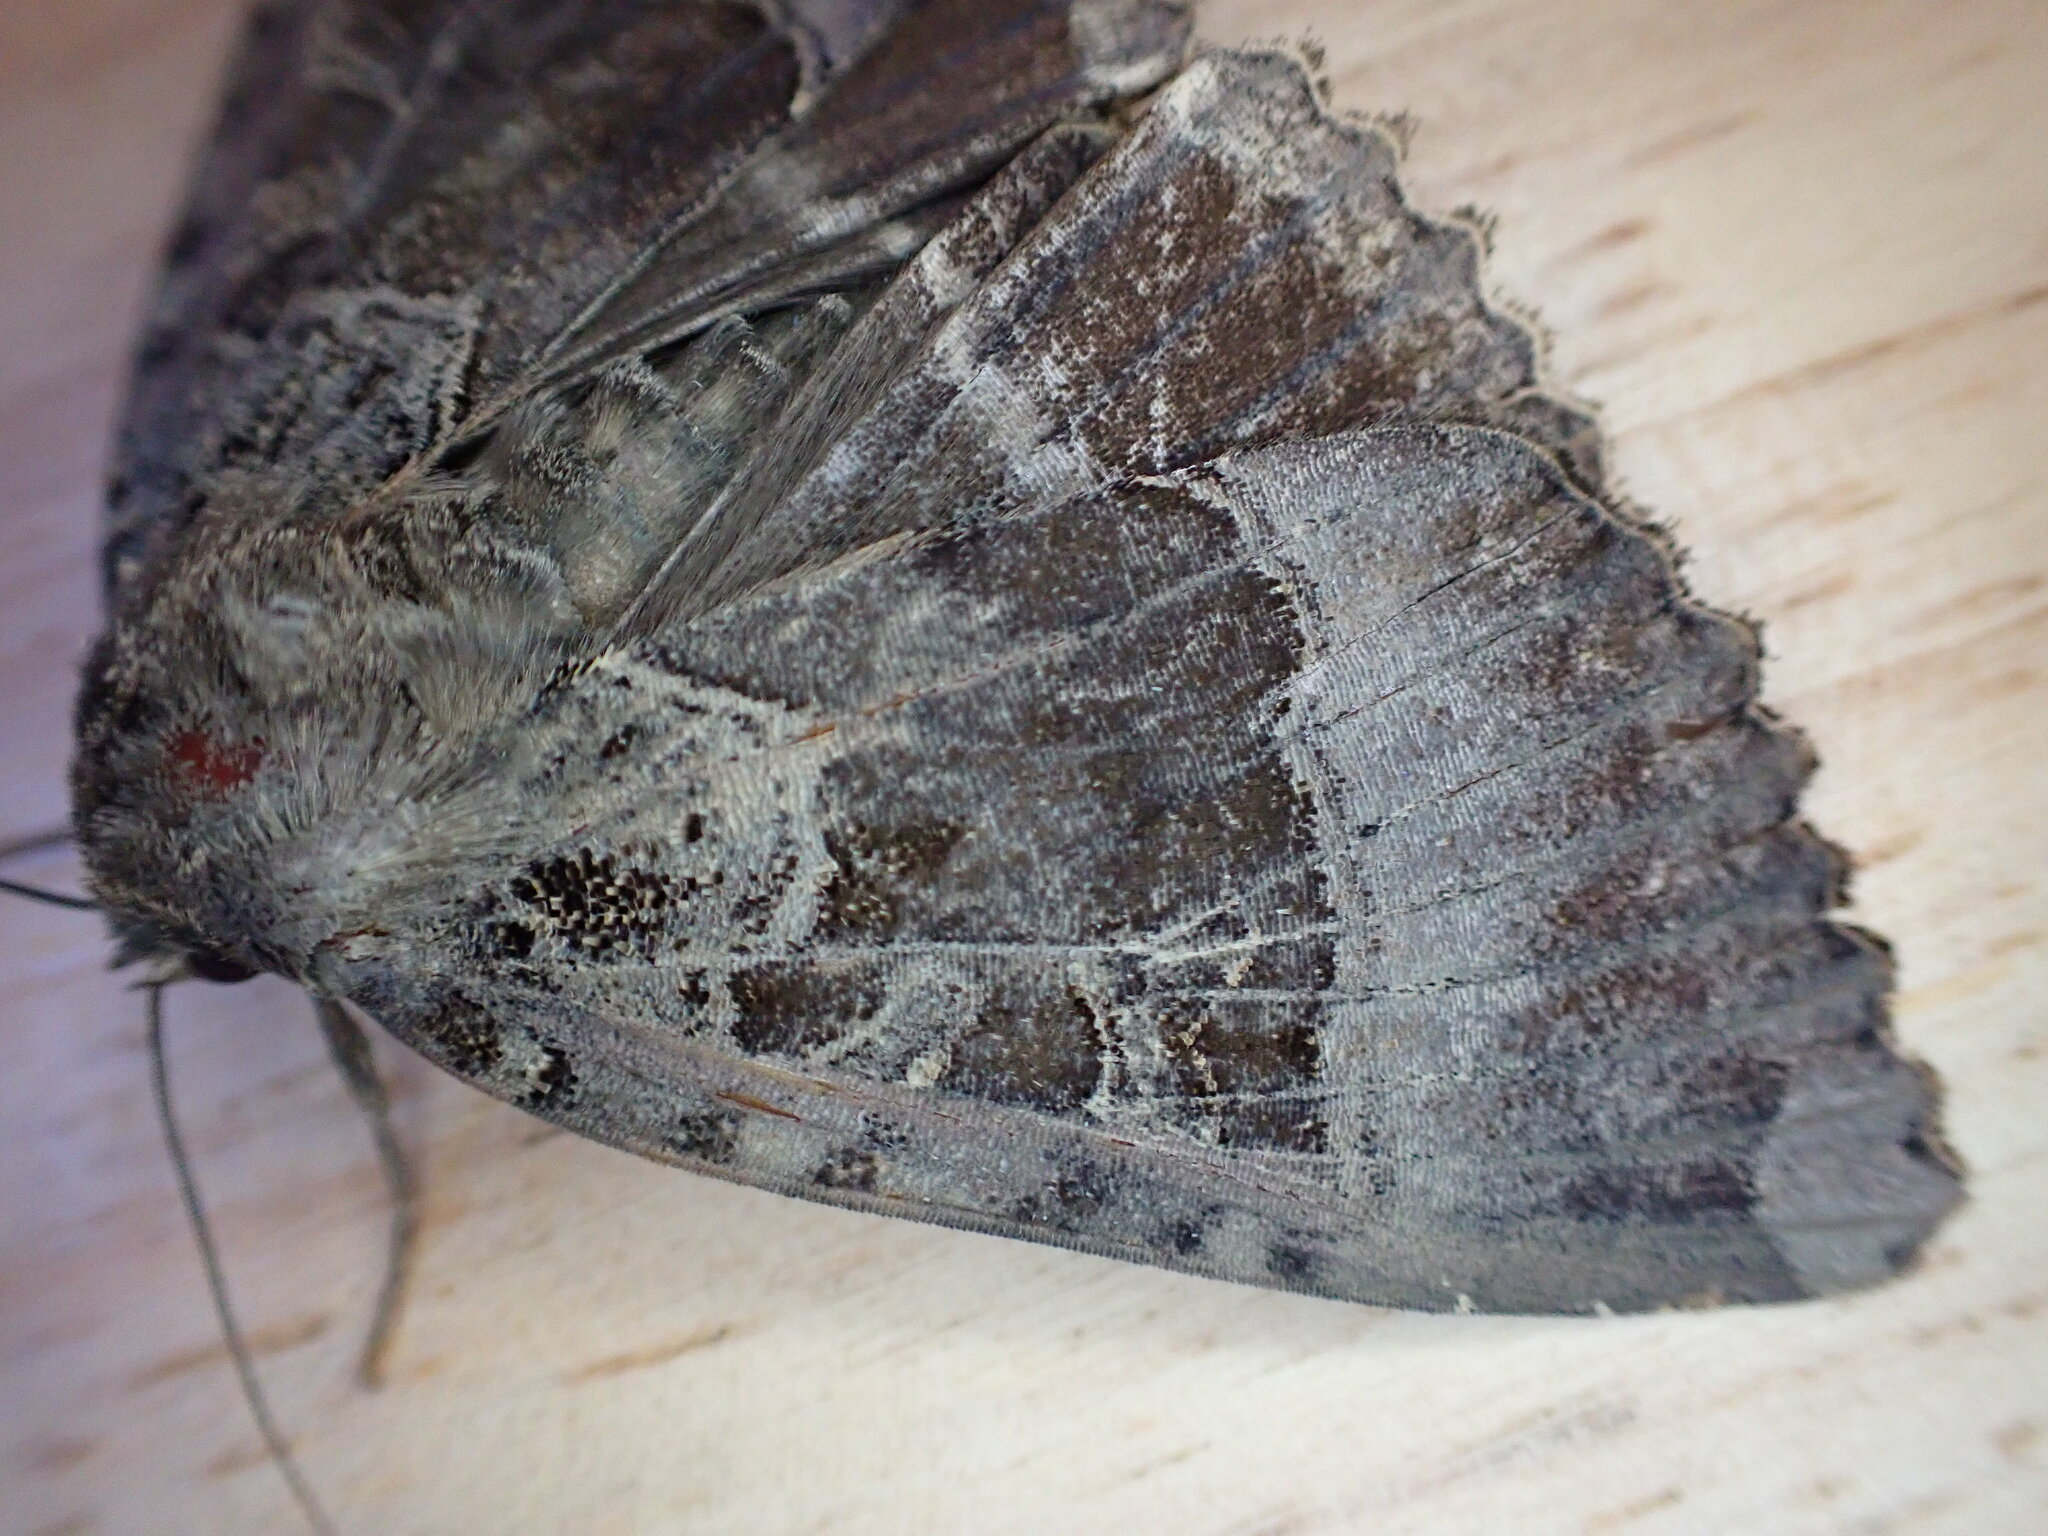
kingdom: Animalia
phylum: Arthropoda
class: Insecta
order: Lepidoptera
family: Noctuidae
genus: Mormo
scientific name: Mormo maura
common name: Old lady
